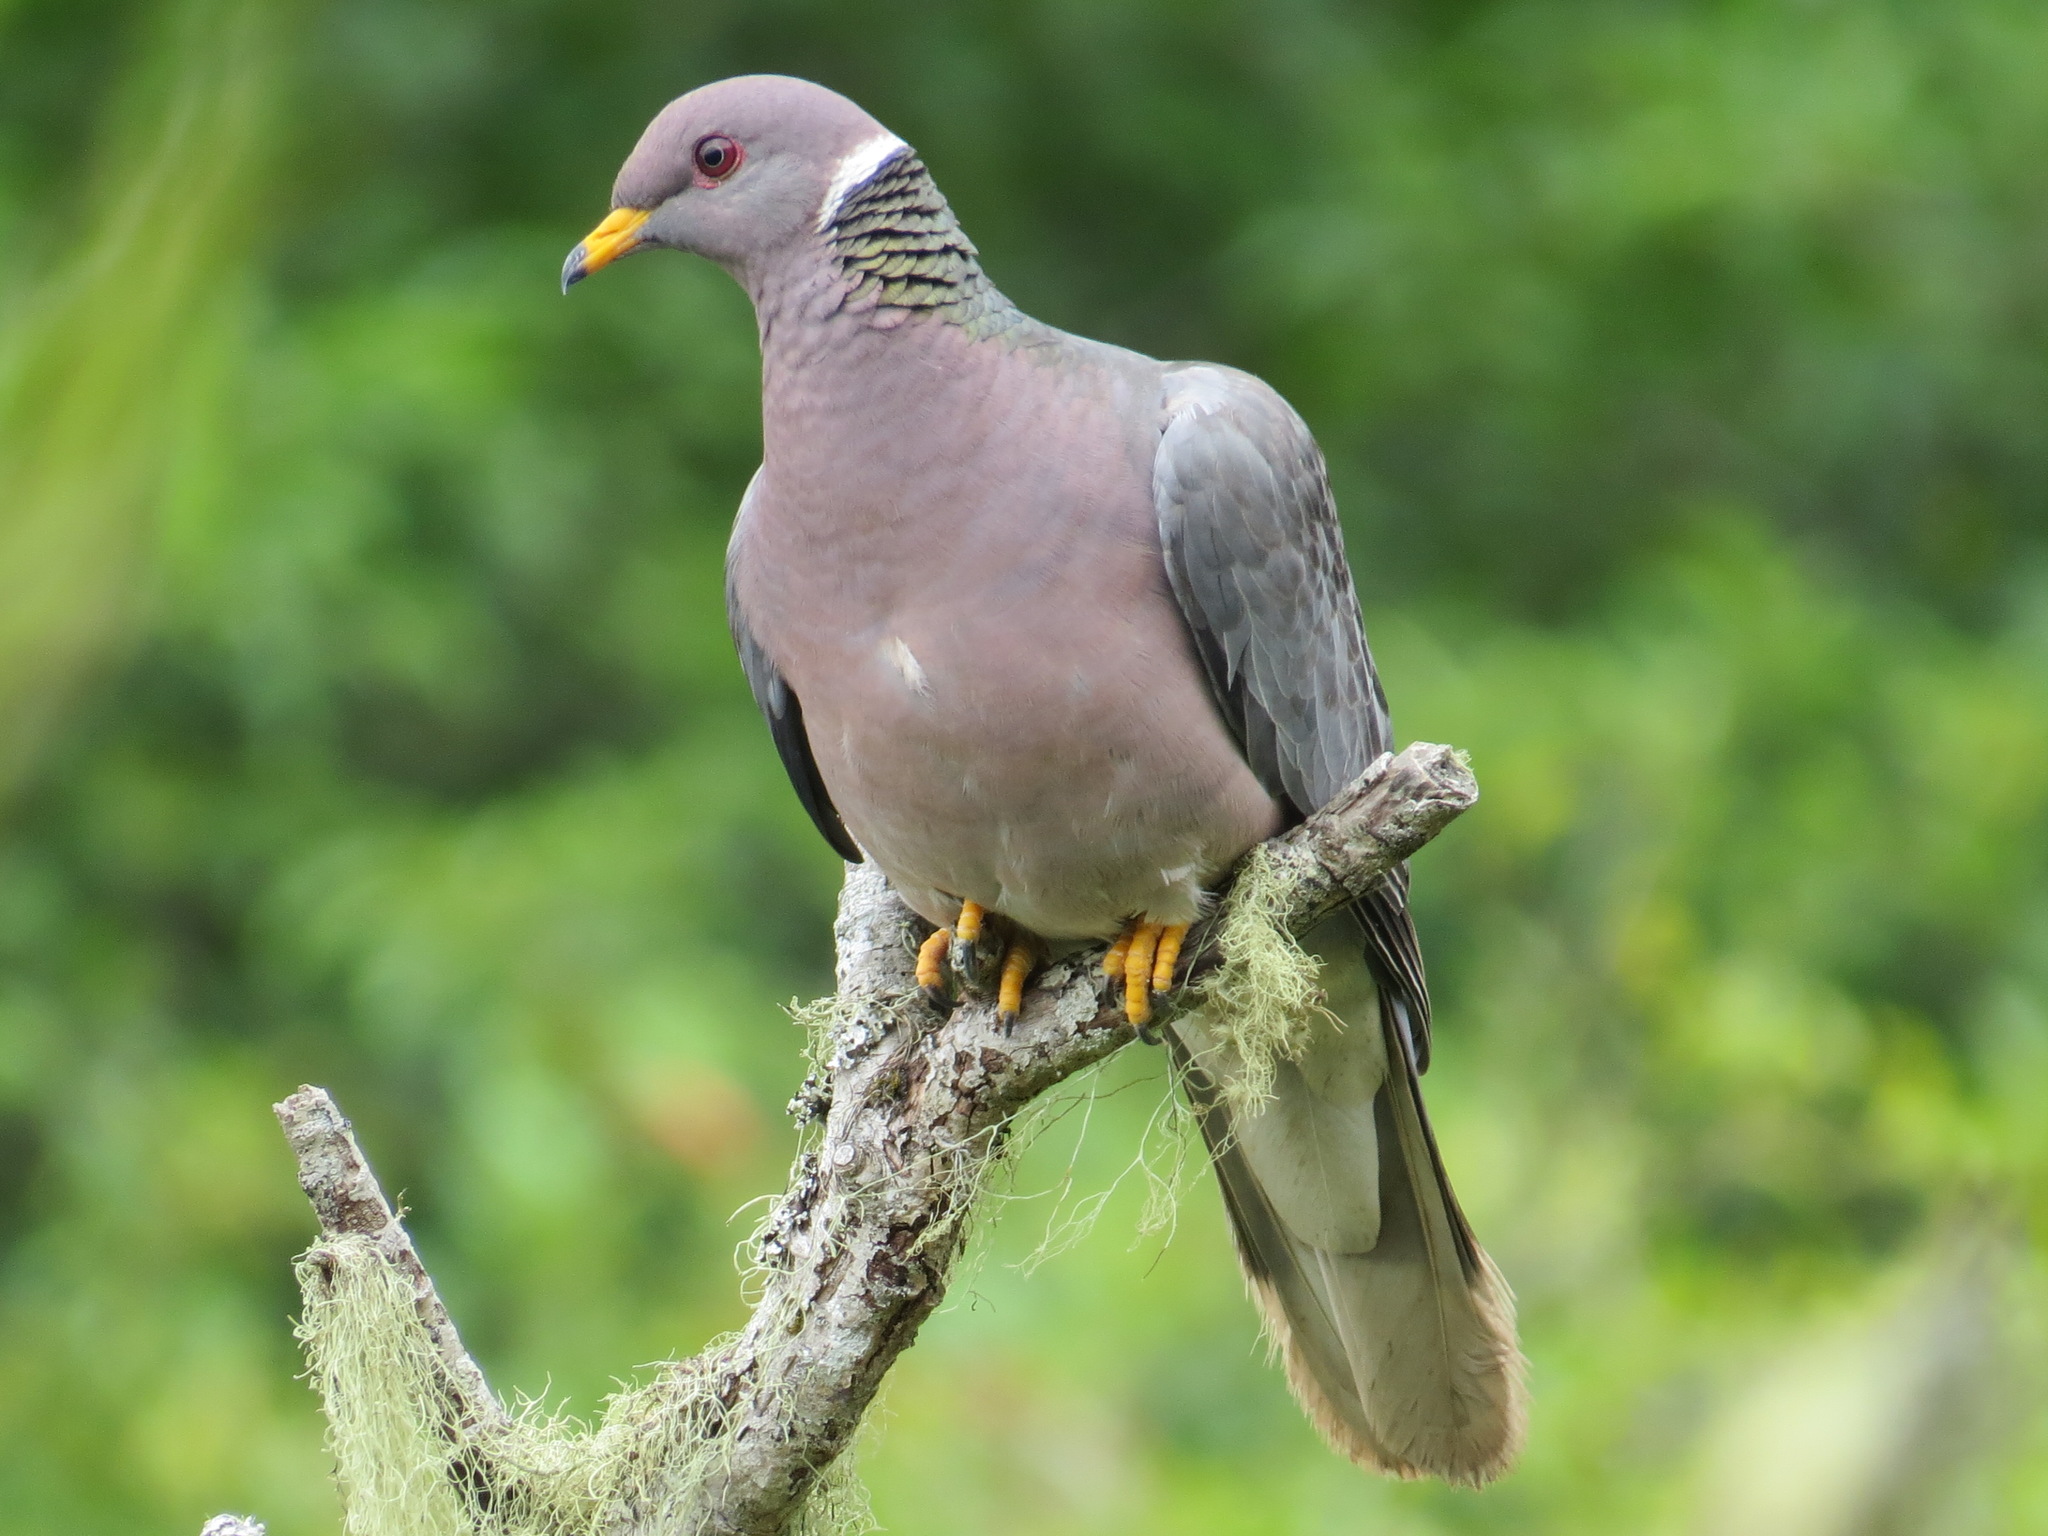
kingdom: Animalia
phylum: Chordata
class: Aves
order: Columbiformes
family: Columbidae
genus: Patagioenas
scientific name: Patagioenas fasciata
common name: Band-tailed pigeon
